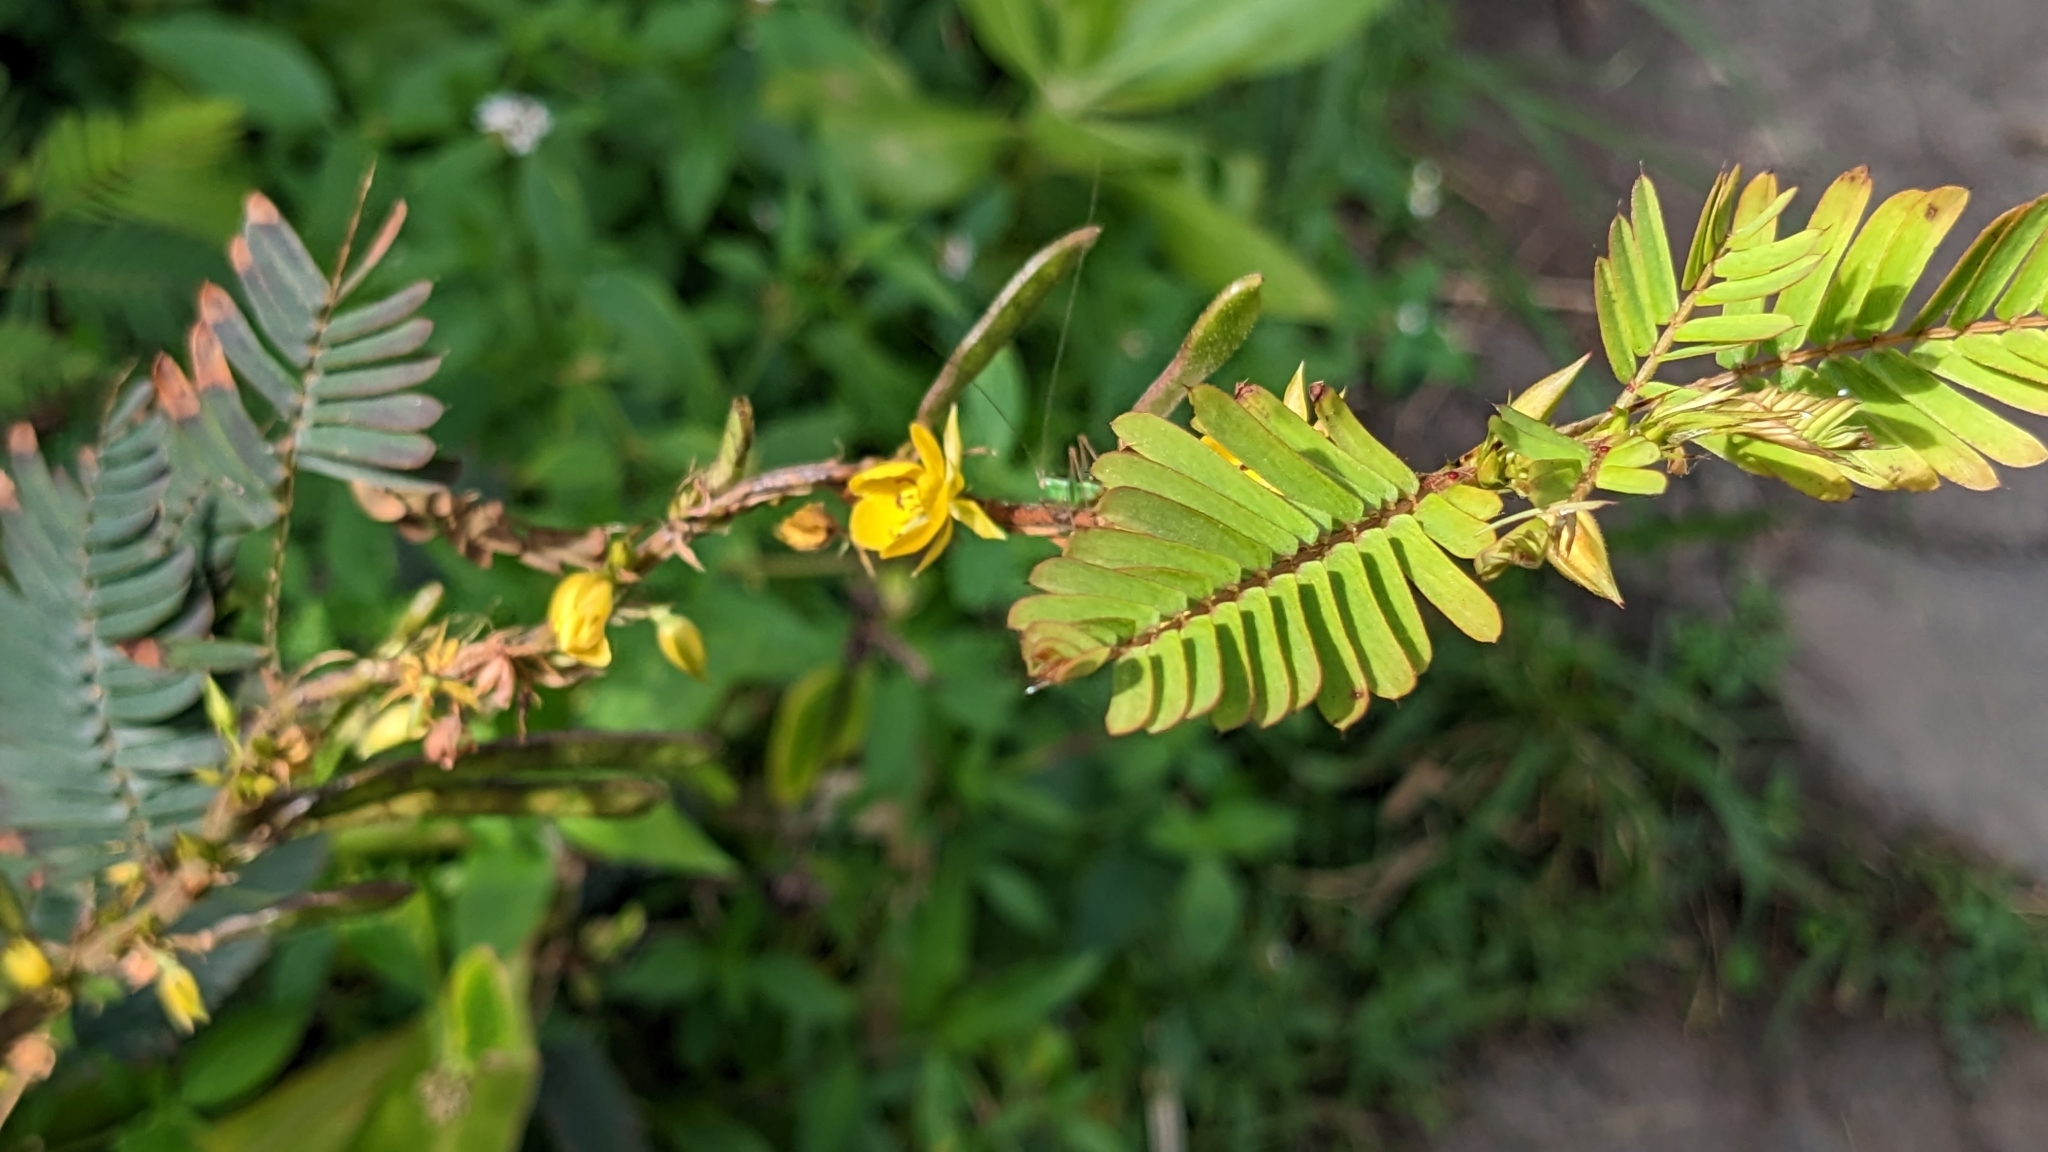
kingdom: Plantae
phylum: Tracheophyta
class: Magnoliopsida
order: Fabales
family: Fabaceae
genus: Chamaecrista
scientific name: Chamaecrista nictitans
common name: Sensitive cassia
